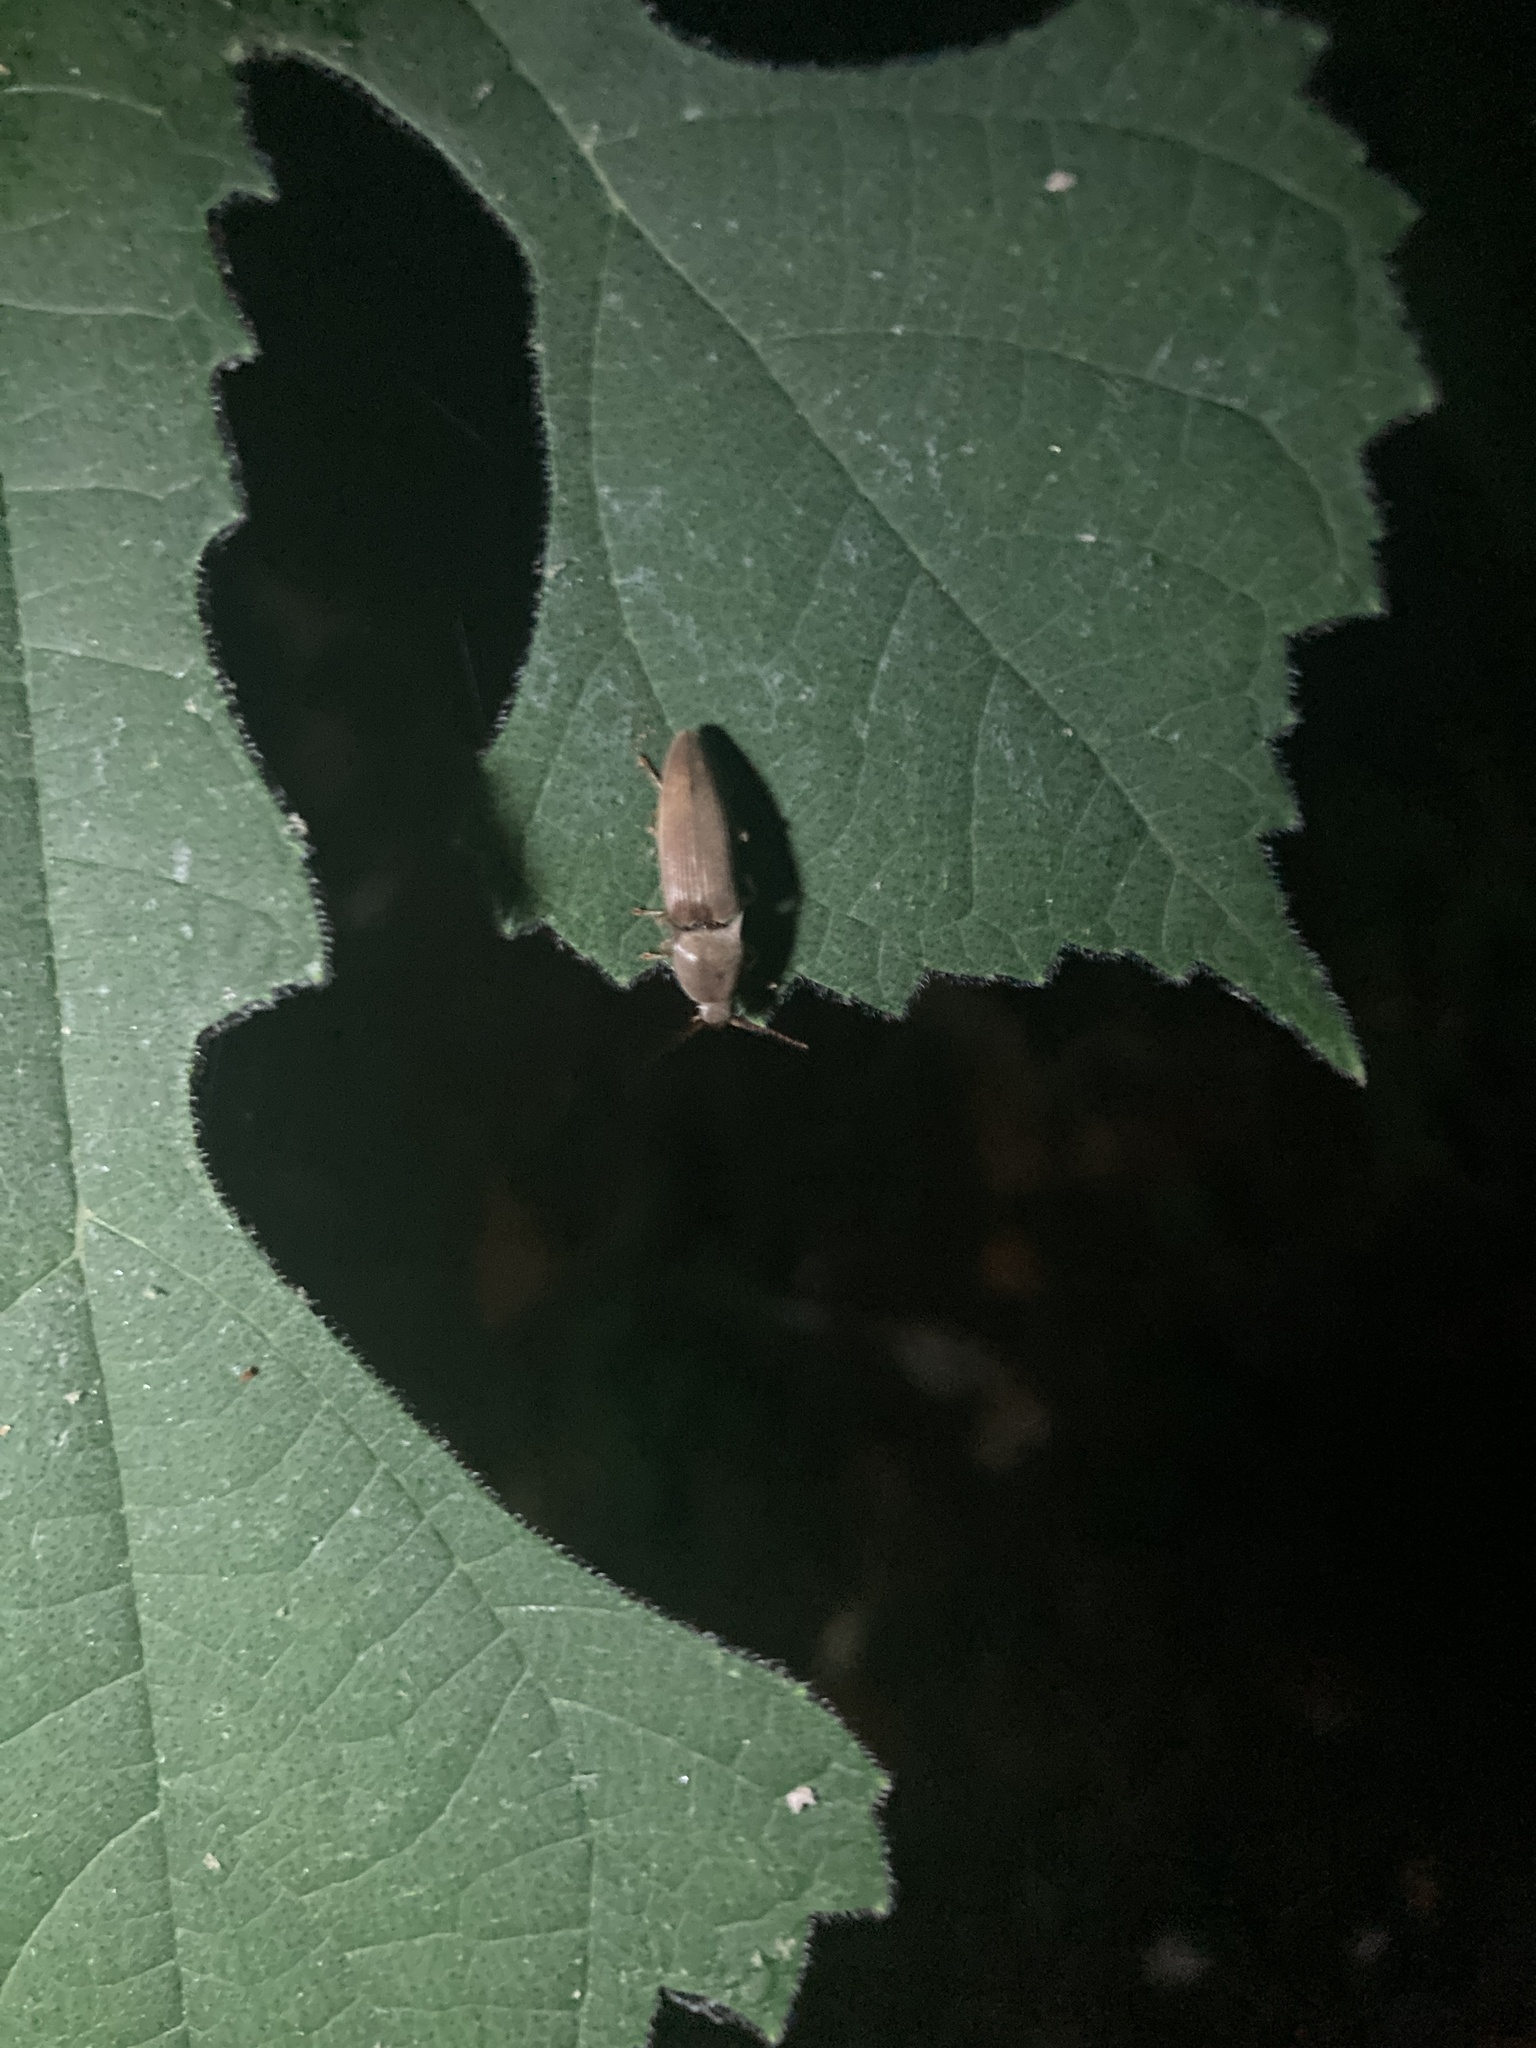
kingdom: Animalia
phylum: Arthropoda
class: Insecta
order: Coleoptera
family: Elateridae
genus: Monocrepidius
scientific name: Monocrepidius lividus
